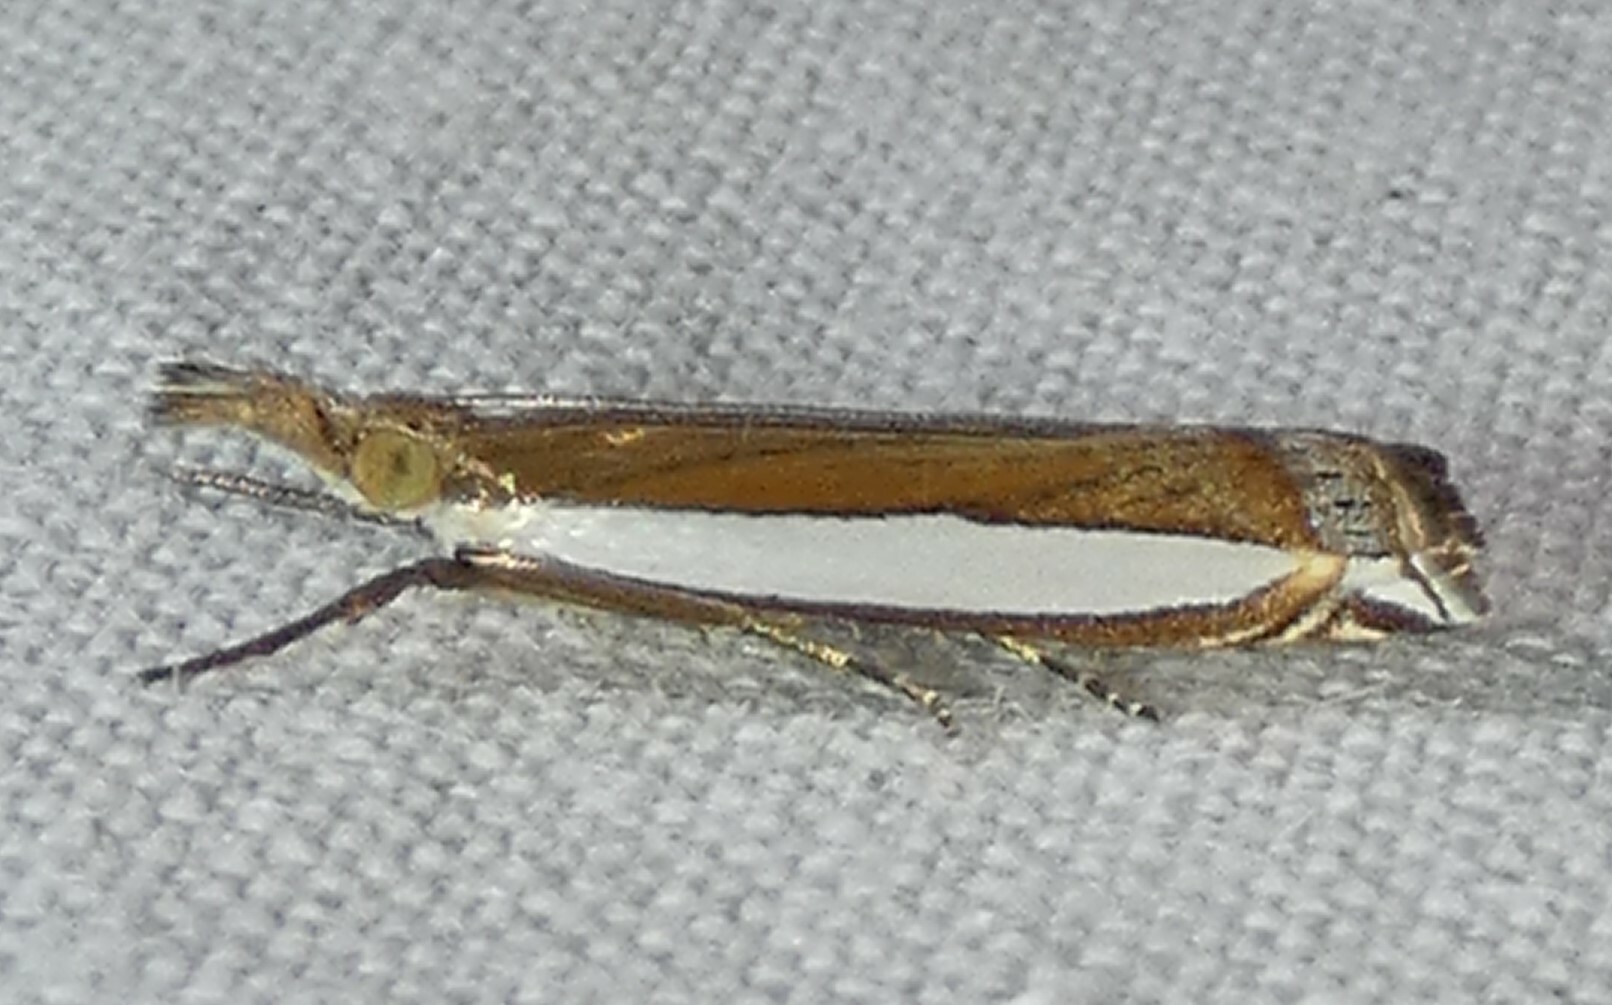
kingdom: Animalia
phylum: Arthropoda
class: Insecta
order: Lepidoptera
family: Crambidae
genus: Crambus
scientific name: Crambus quinquareatus
